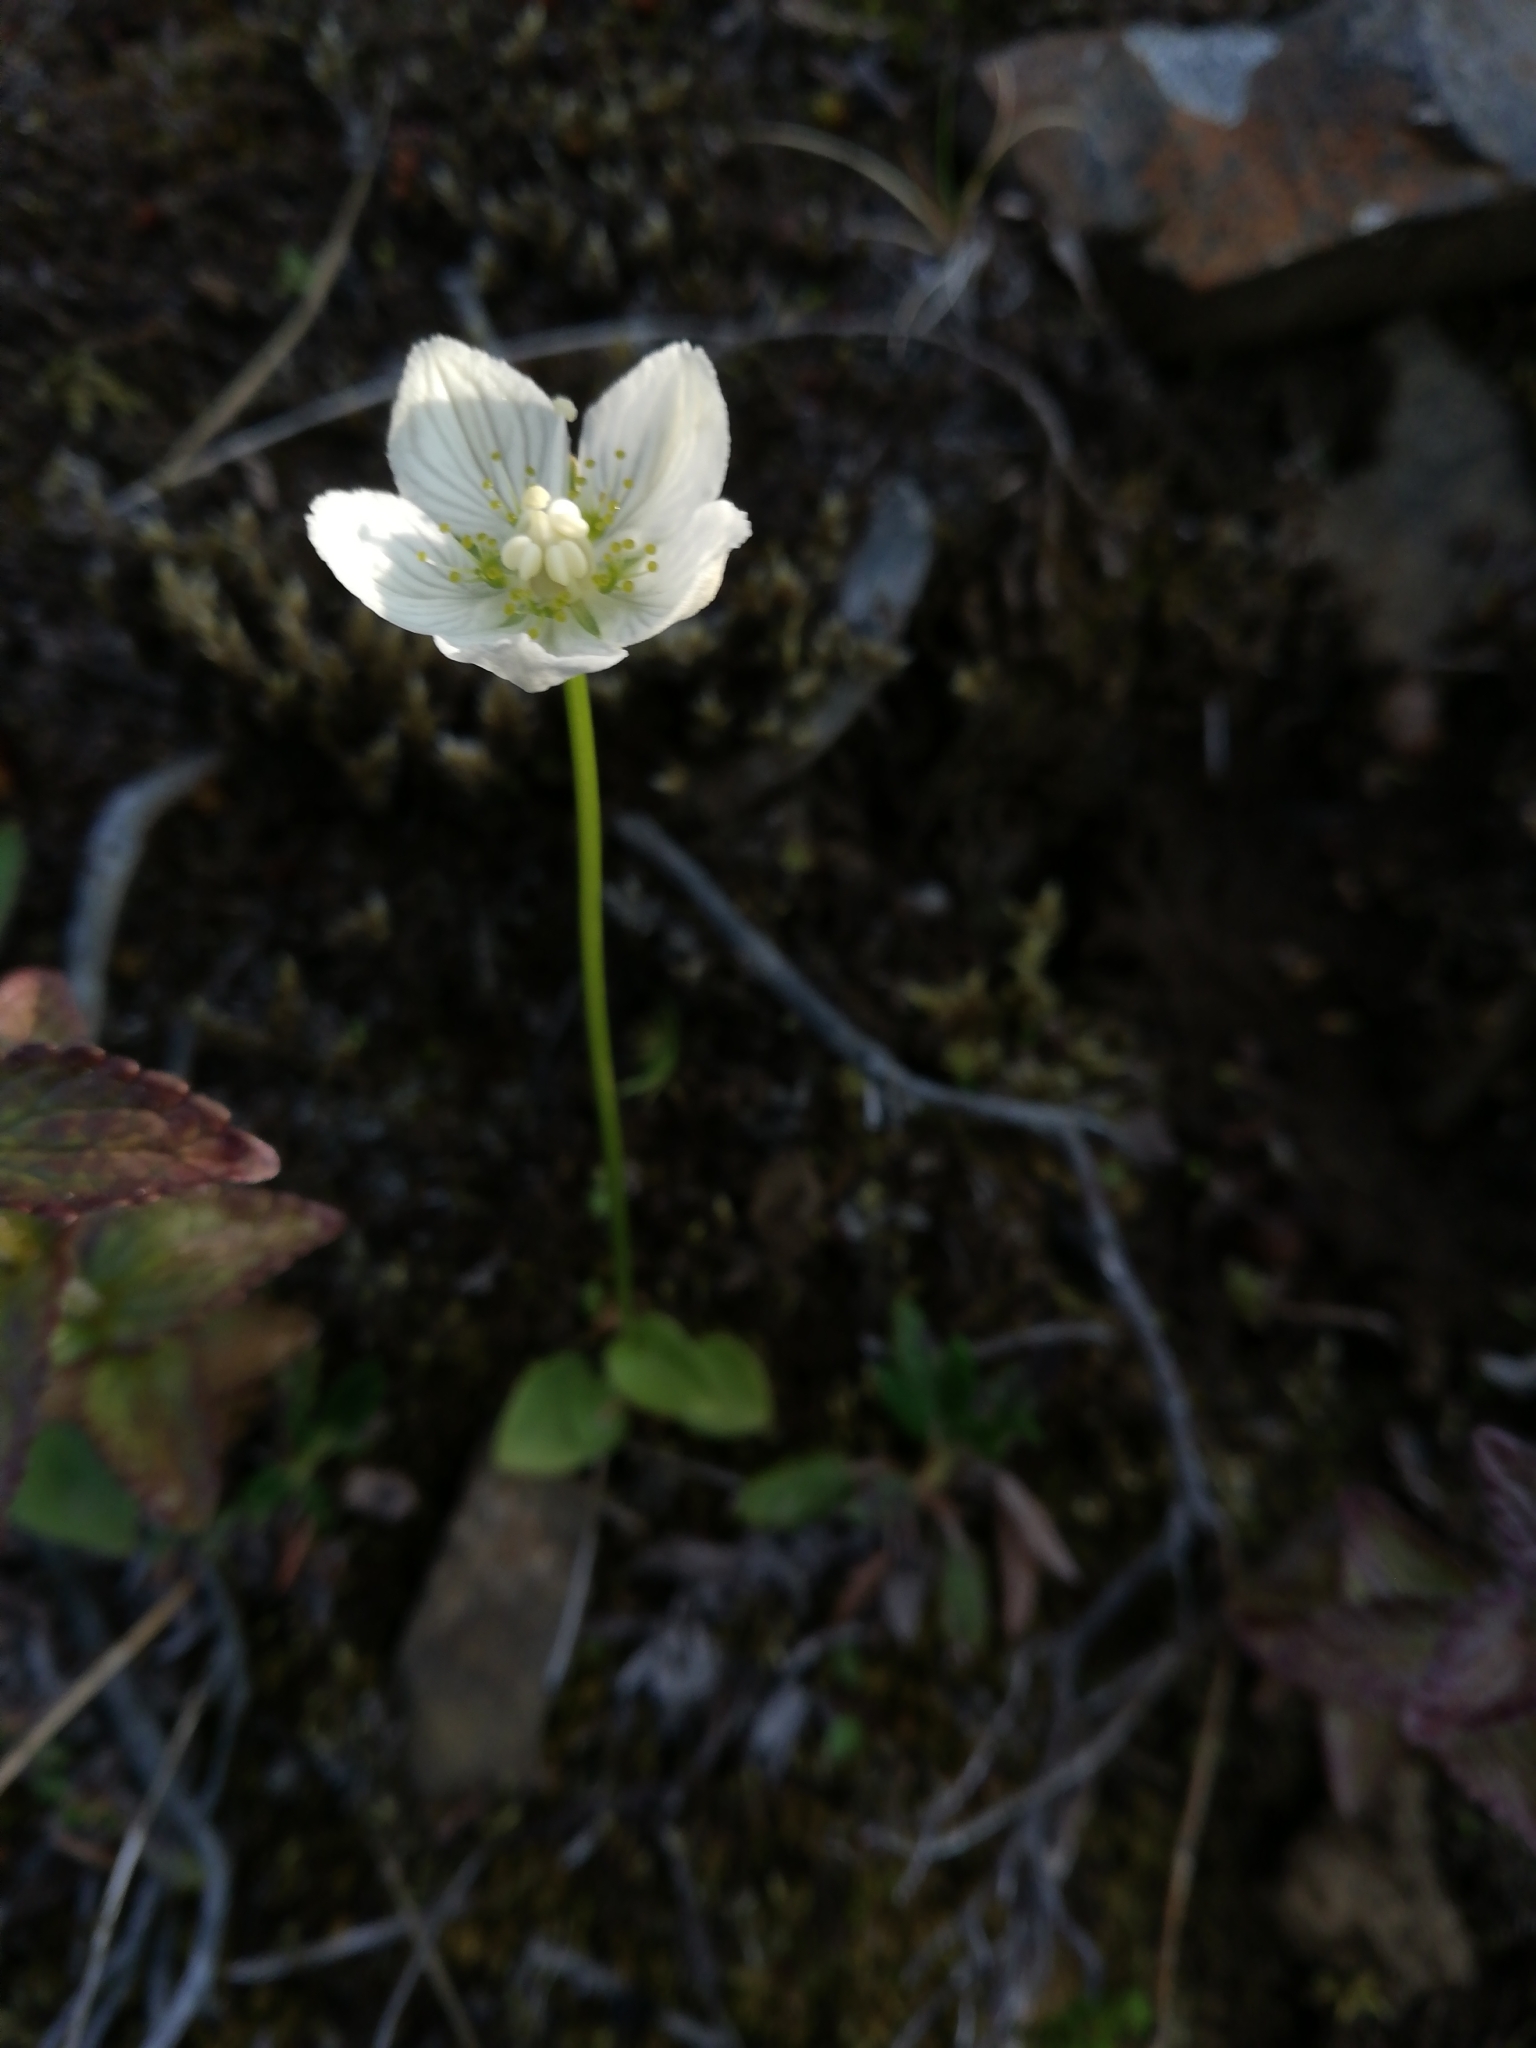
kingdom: Plantae
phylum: Tracheophyta
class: Magnoliopsida
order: Celastrales
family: Parnassiaceae
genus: Parnassia
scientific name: Parnassia palustris
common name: Grass-of-parnassus
